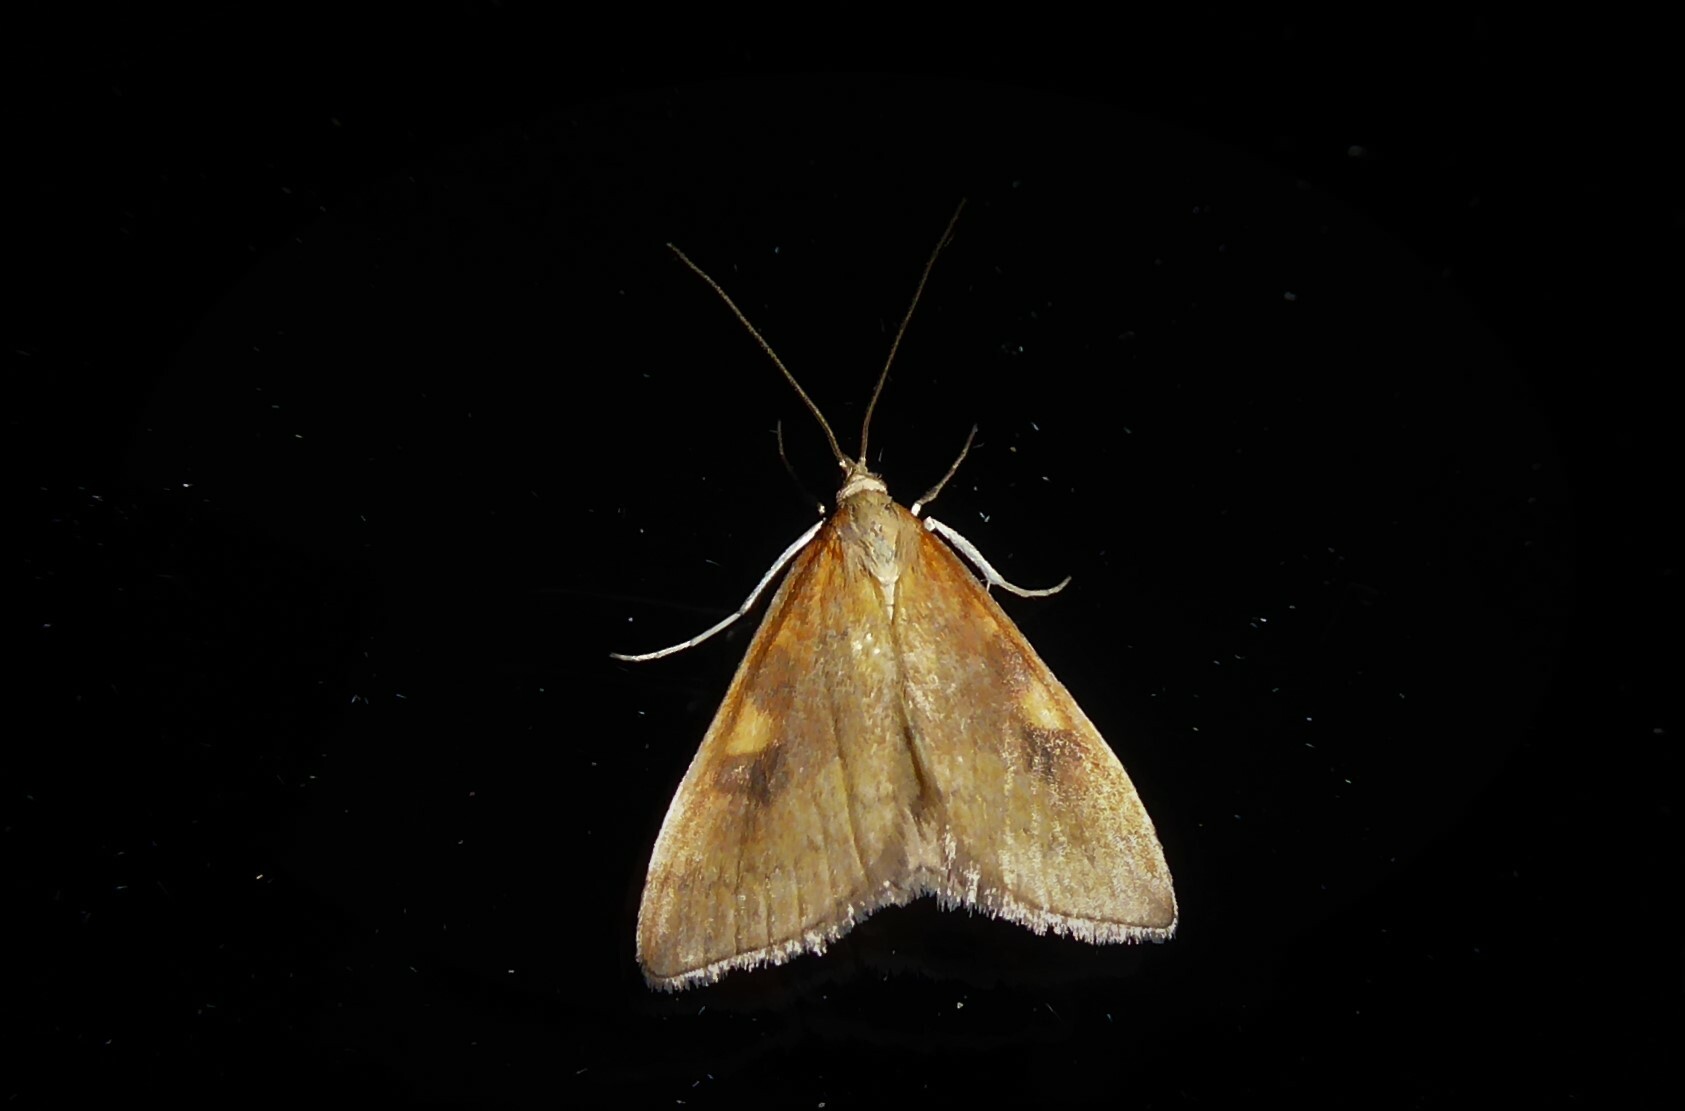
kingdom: Animalia
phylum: Arthropoda
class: Insecta
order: Lepidoptera
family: Crambidae
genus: Udea
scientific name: Udea Mnesictena flavidalis
